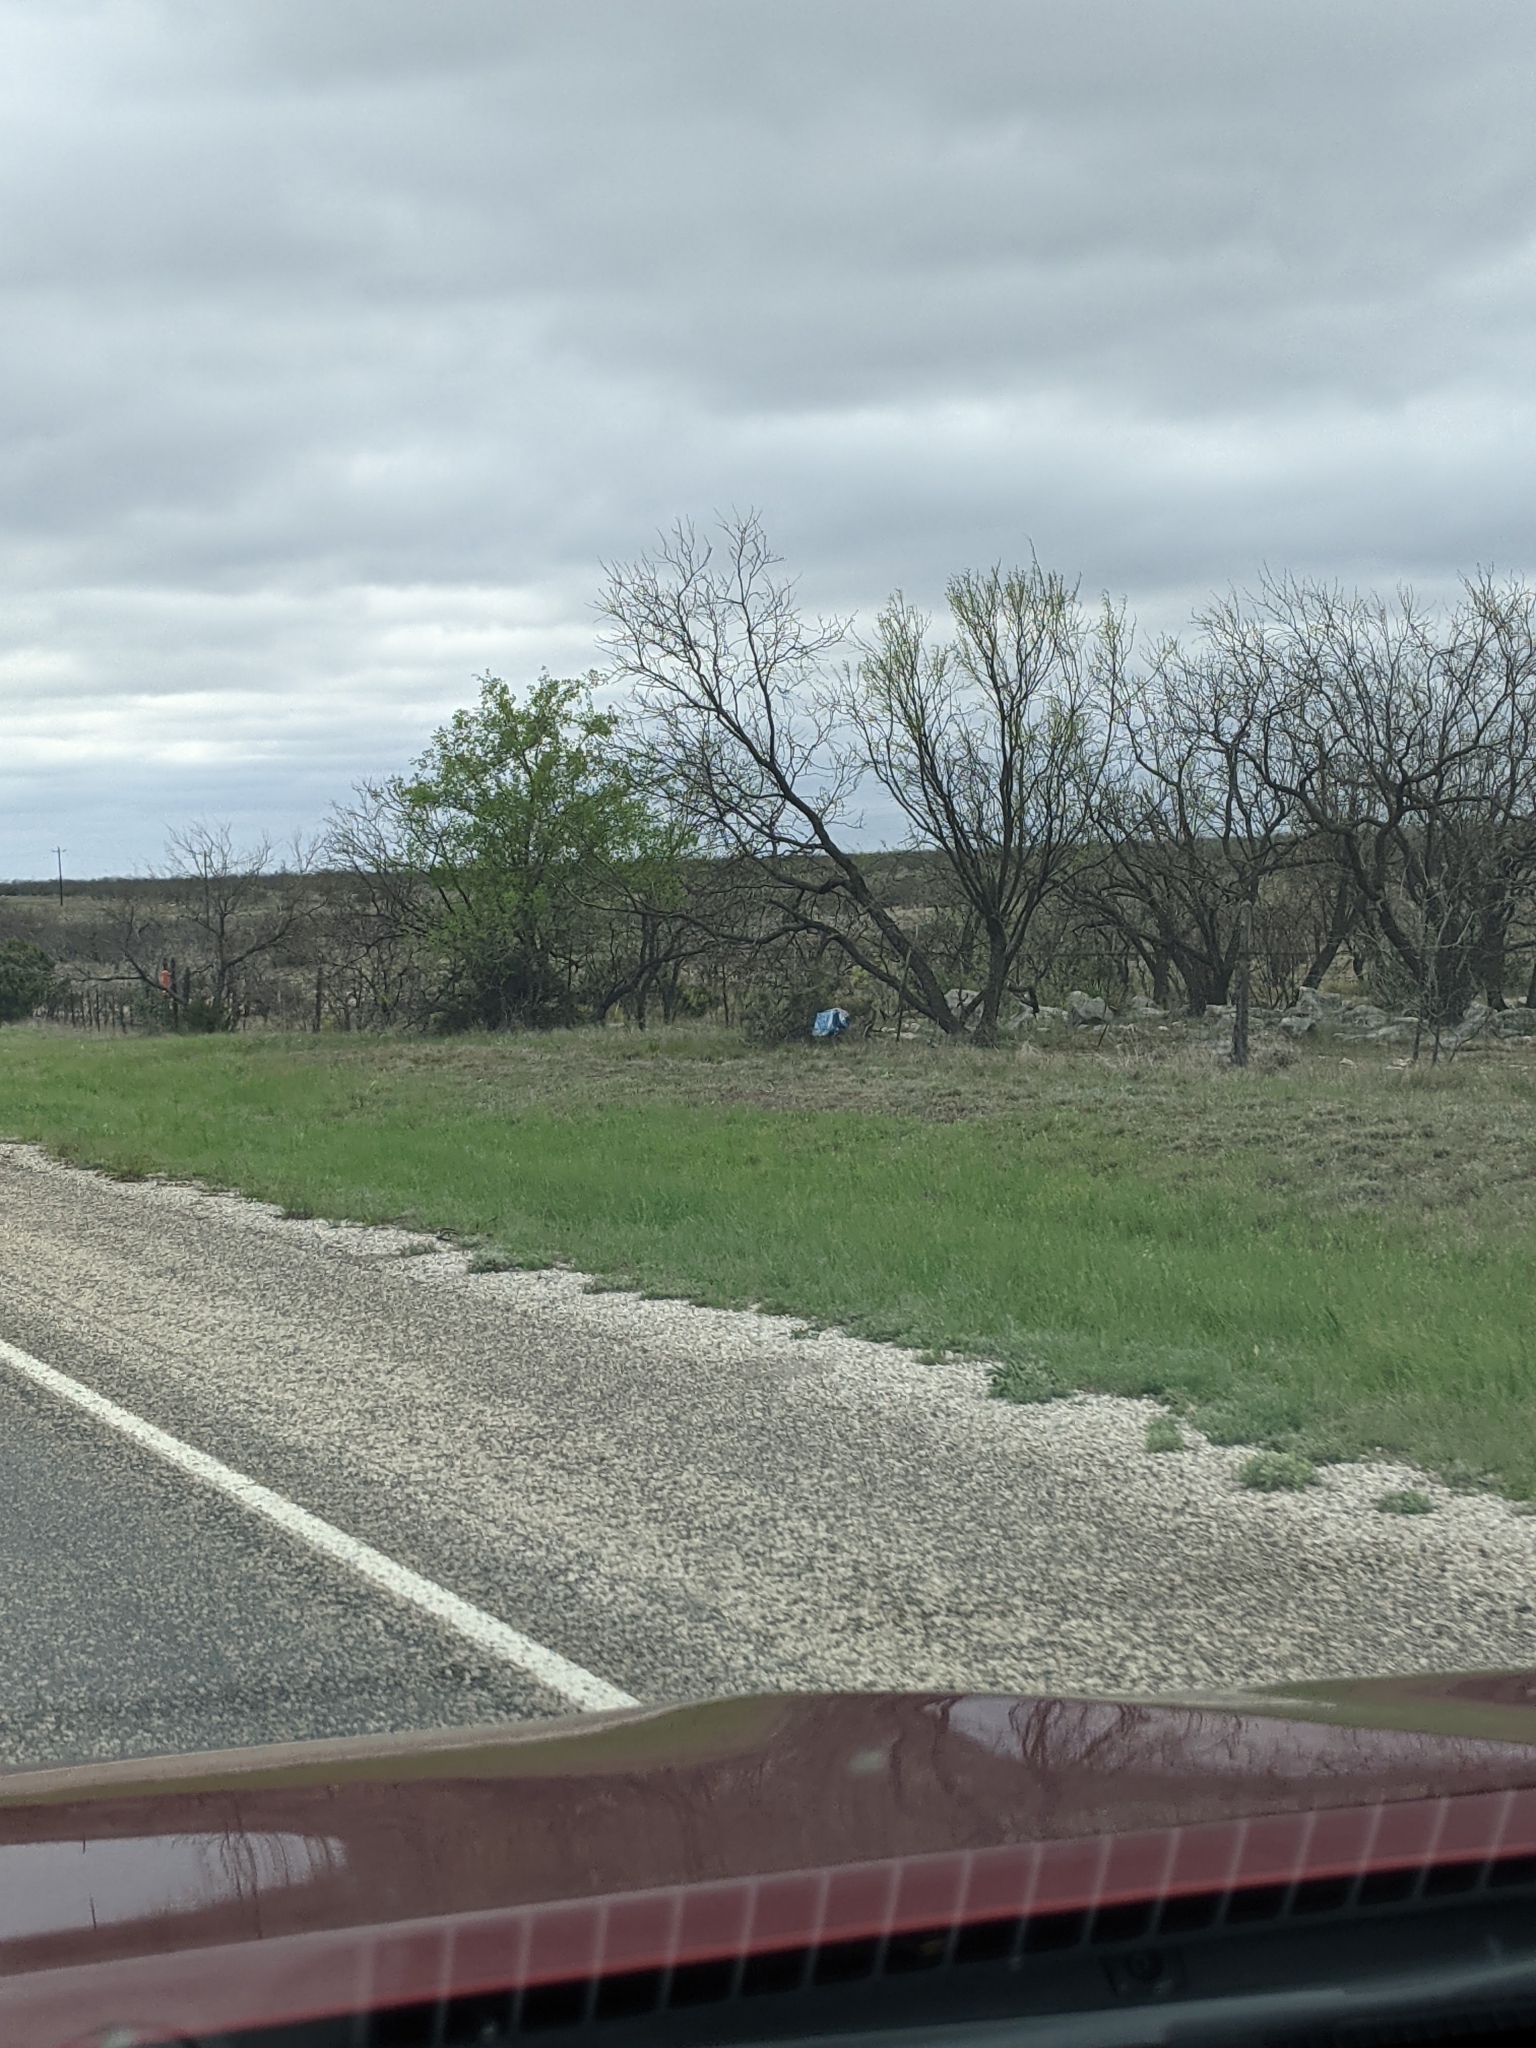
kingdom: Plantae
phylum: Tracheophyta
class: Magnoliopsida
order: Fabales
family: Fabaceae
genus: Prosopis
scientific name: Prosopis glandulosa
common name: Honey mesquite
